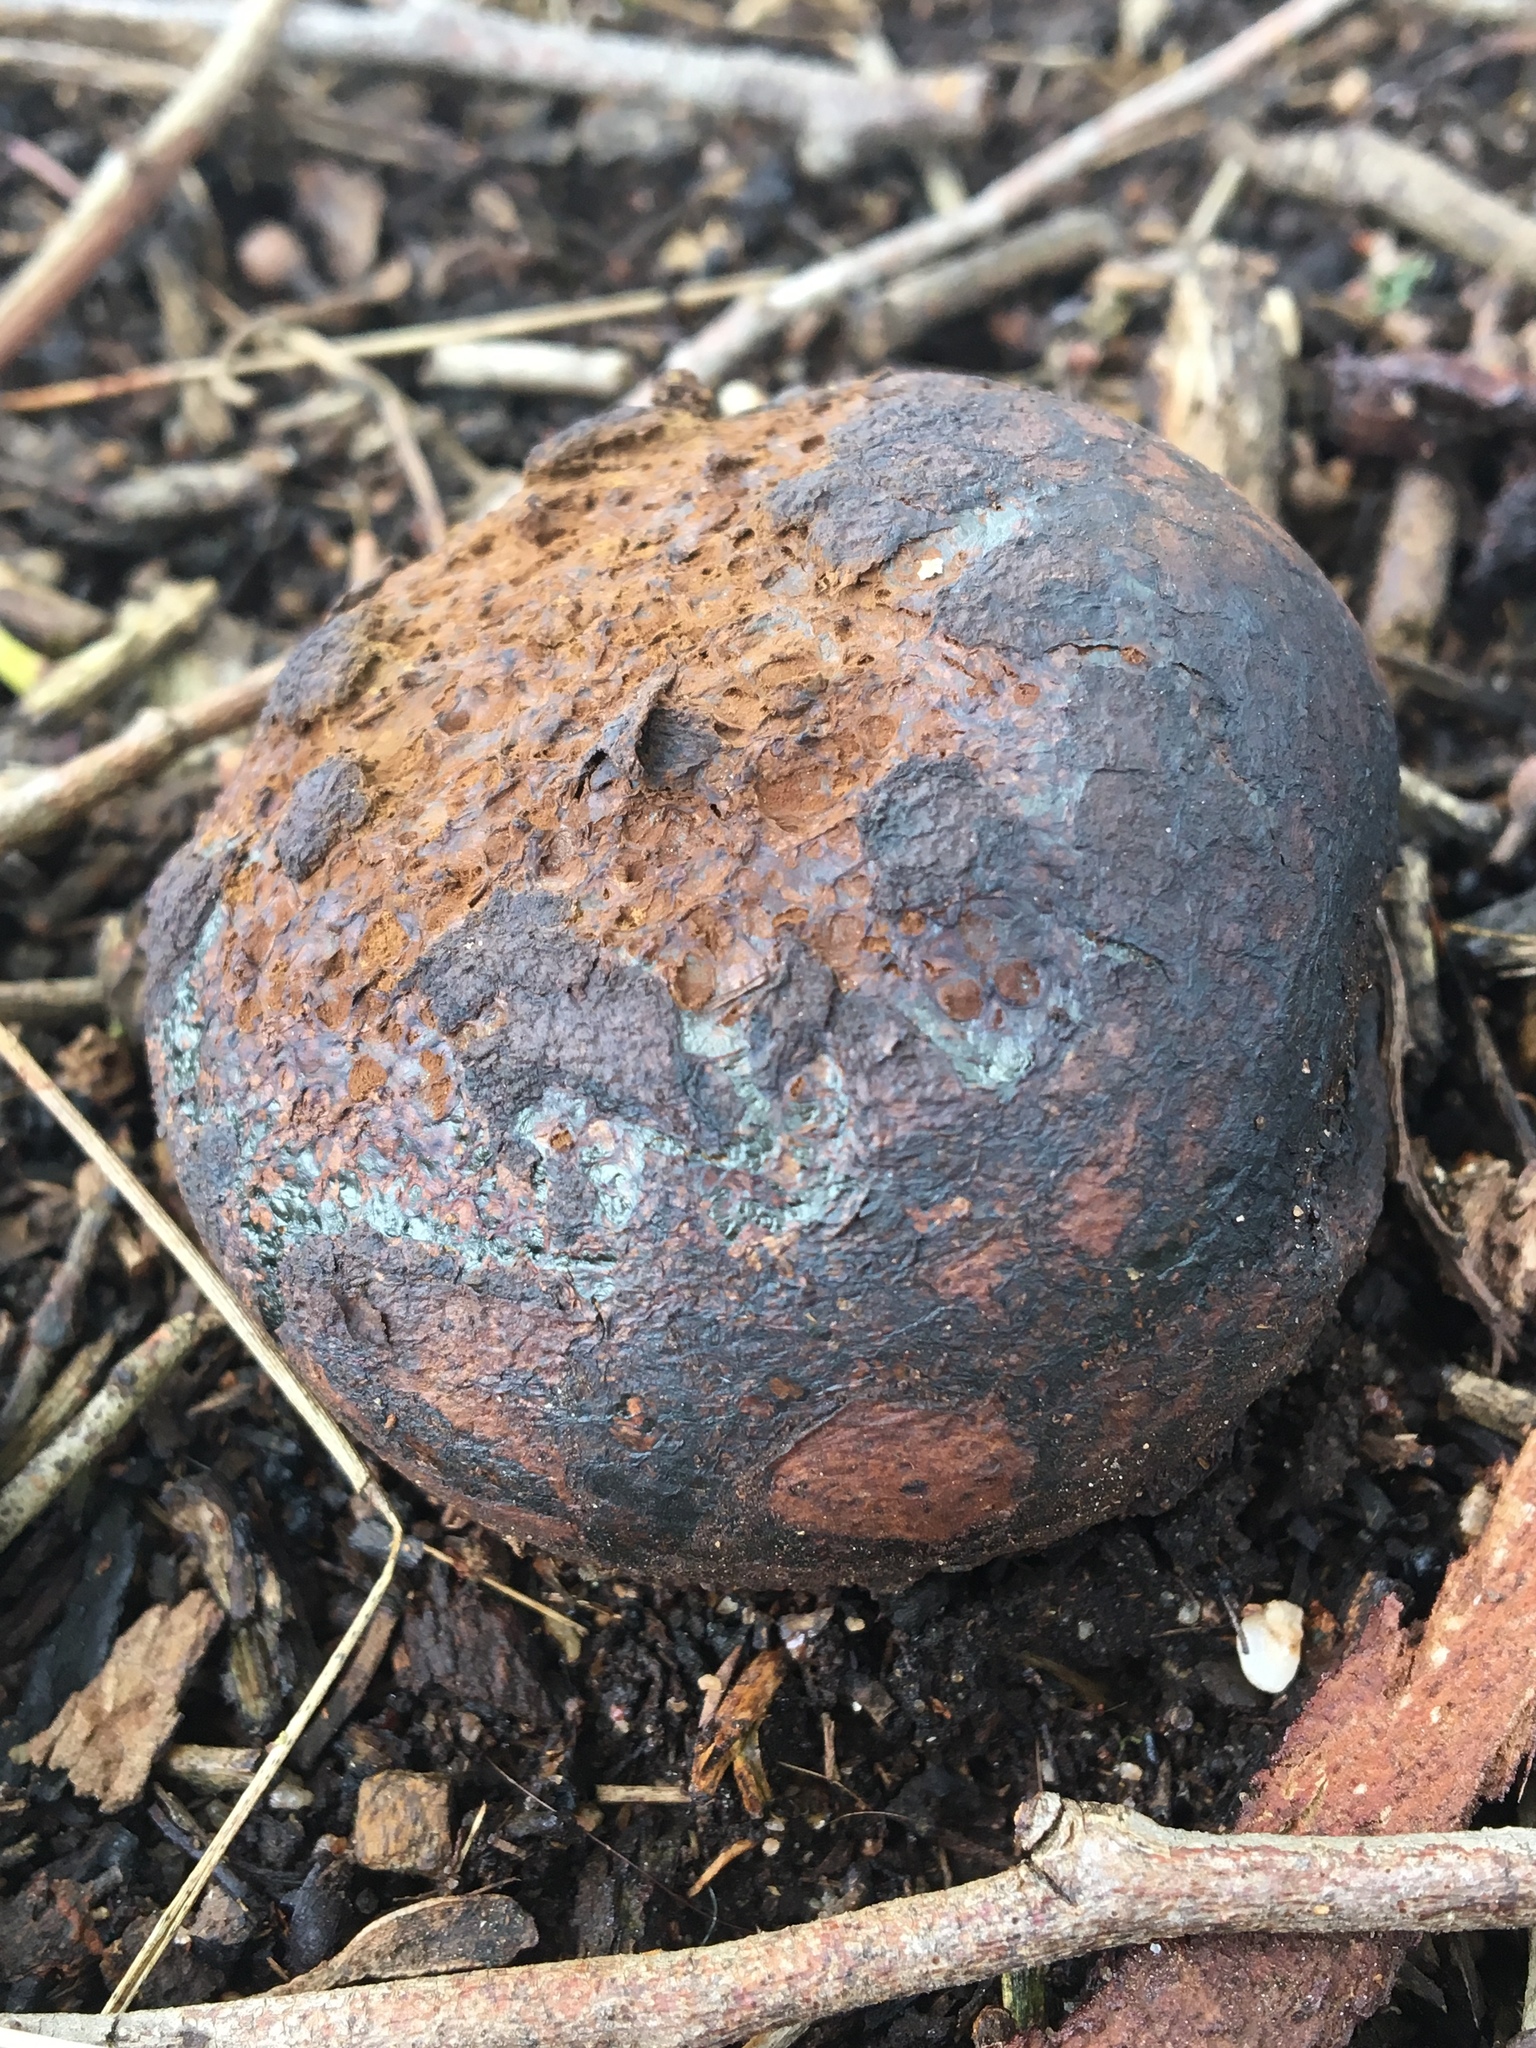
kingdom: Fungi
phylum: Basidiomycota
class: Agaricomycetes
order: Boletales
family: Sclerodermataceae
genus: Pisolithus
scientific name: Pisolithus arhizus
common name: Dyeball
